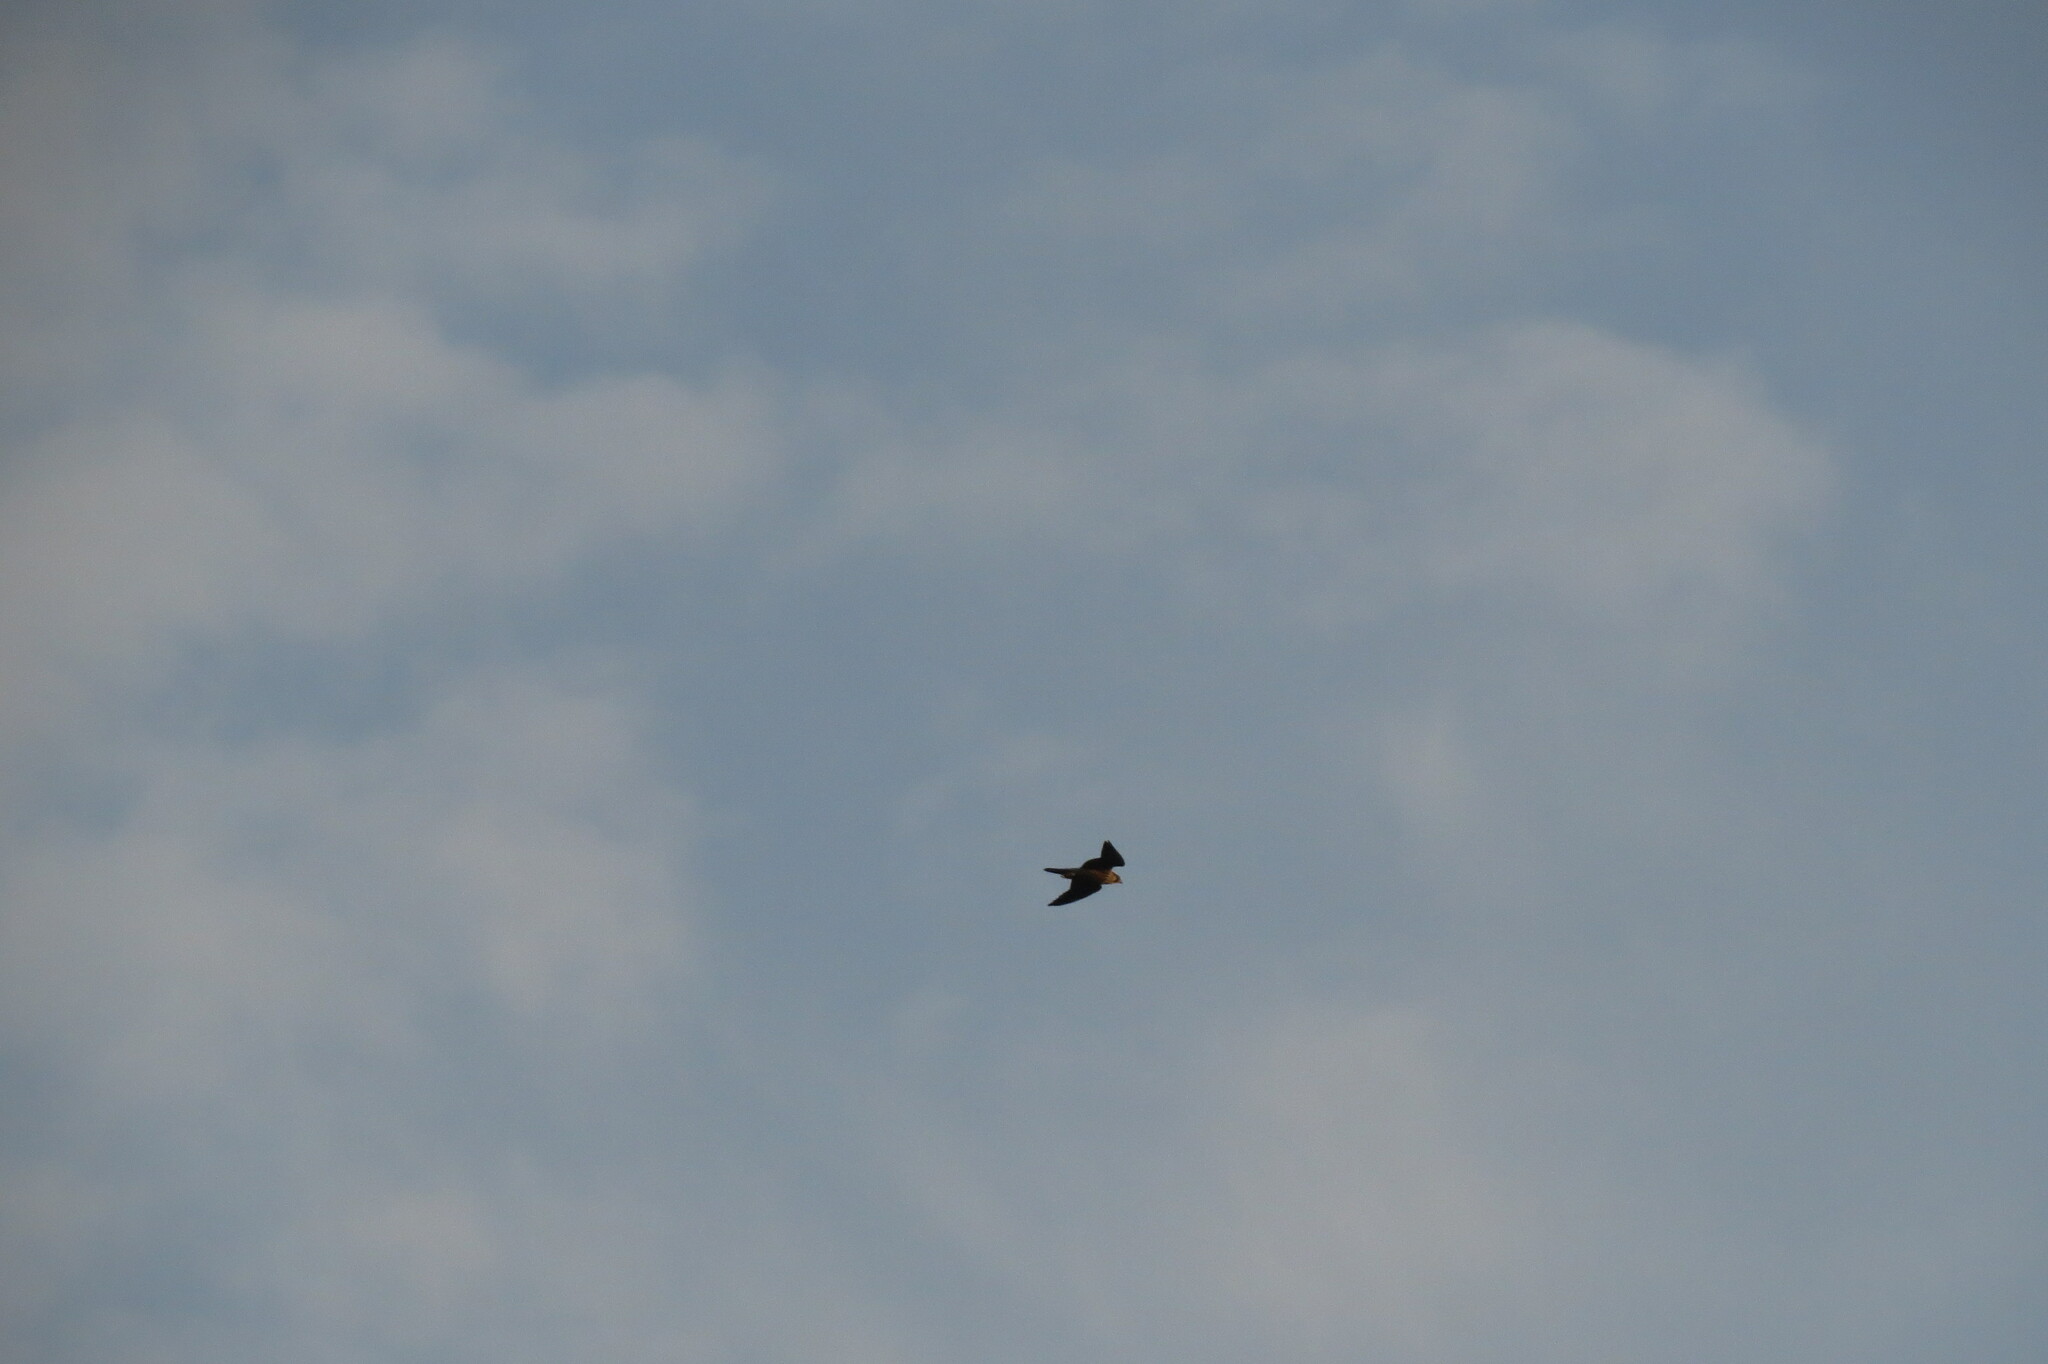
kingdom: Animalia
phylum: Chordata
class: Aves
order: Falconiformes
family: Falconidae
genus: Falco
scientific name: Falco peregrinus
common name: Peregrine falcon
